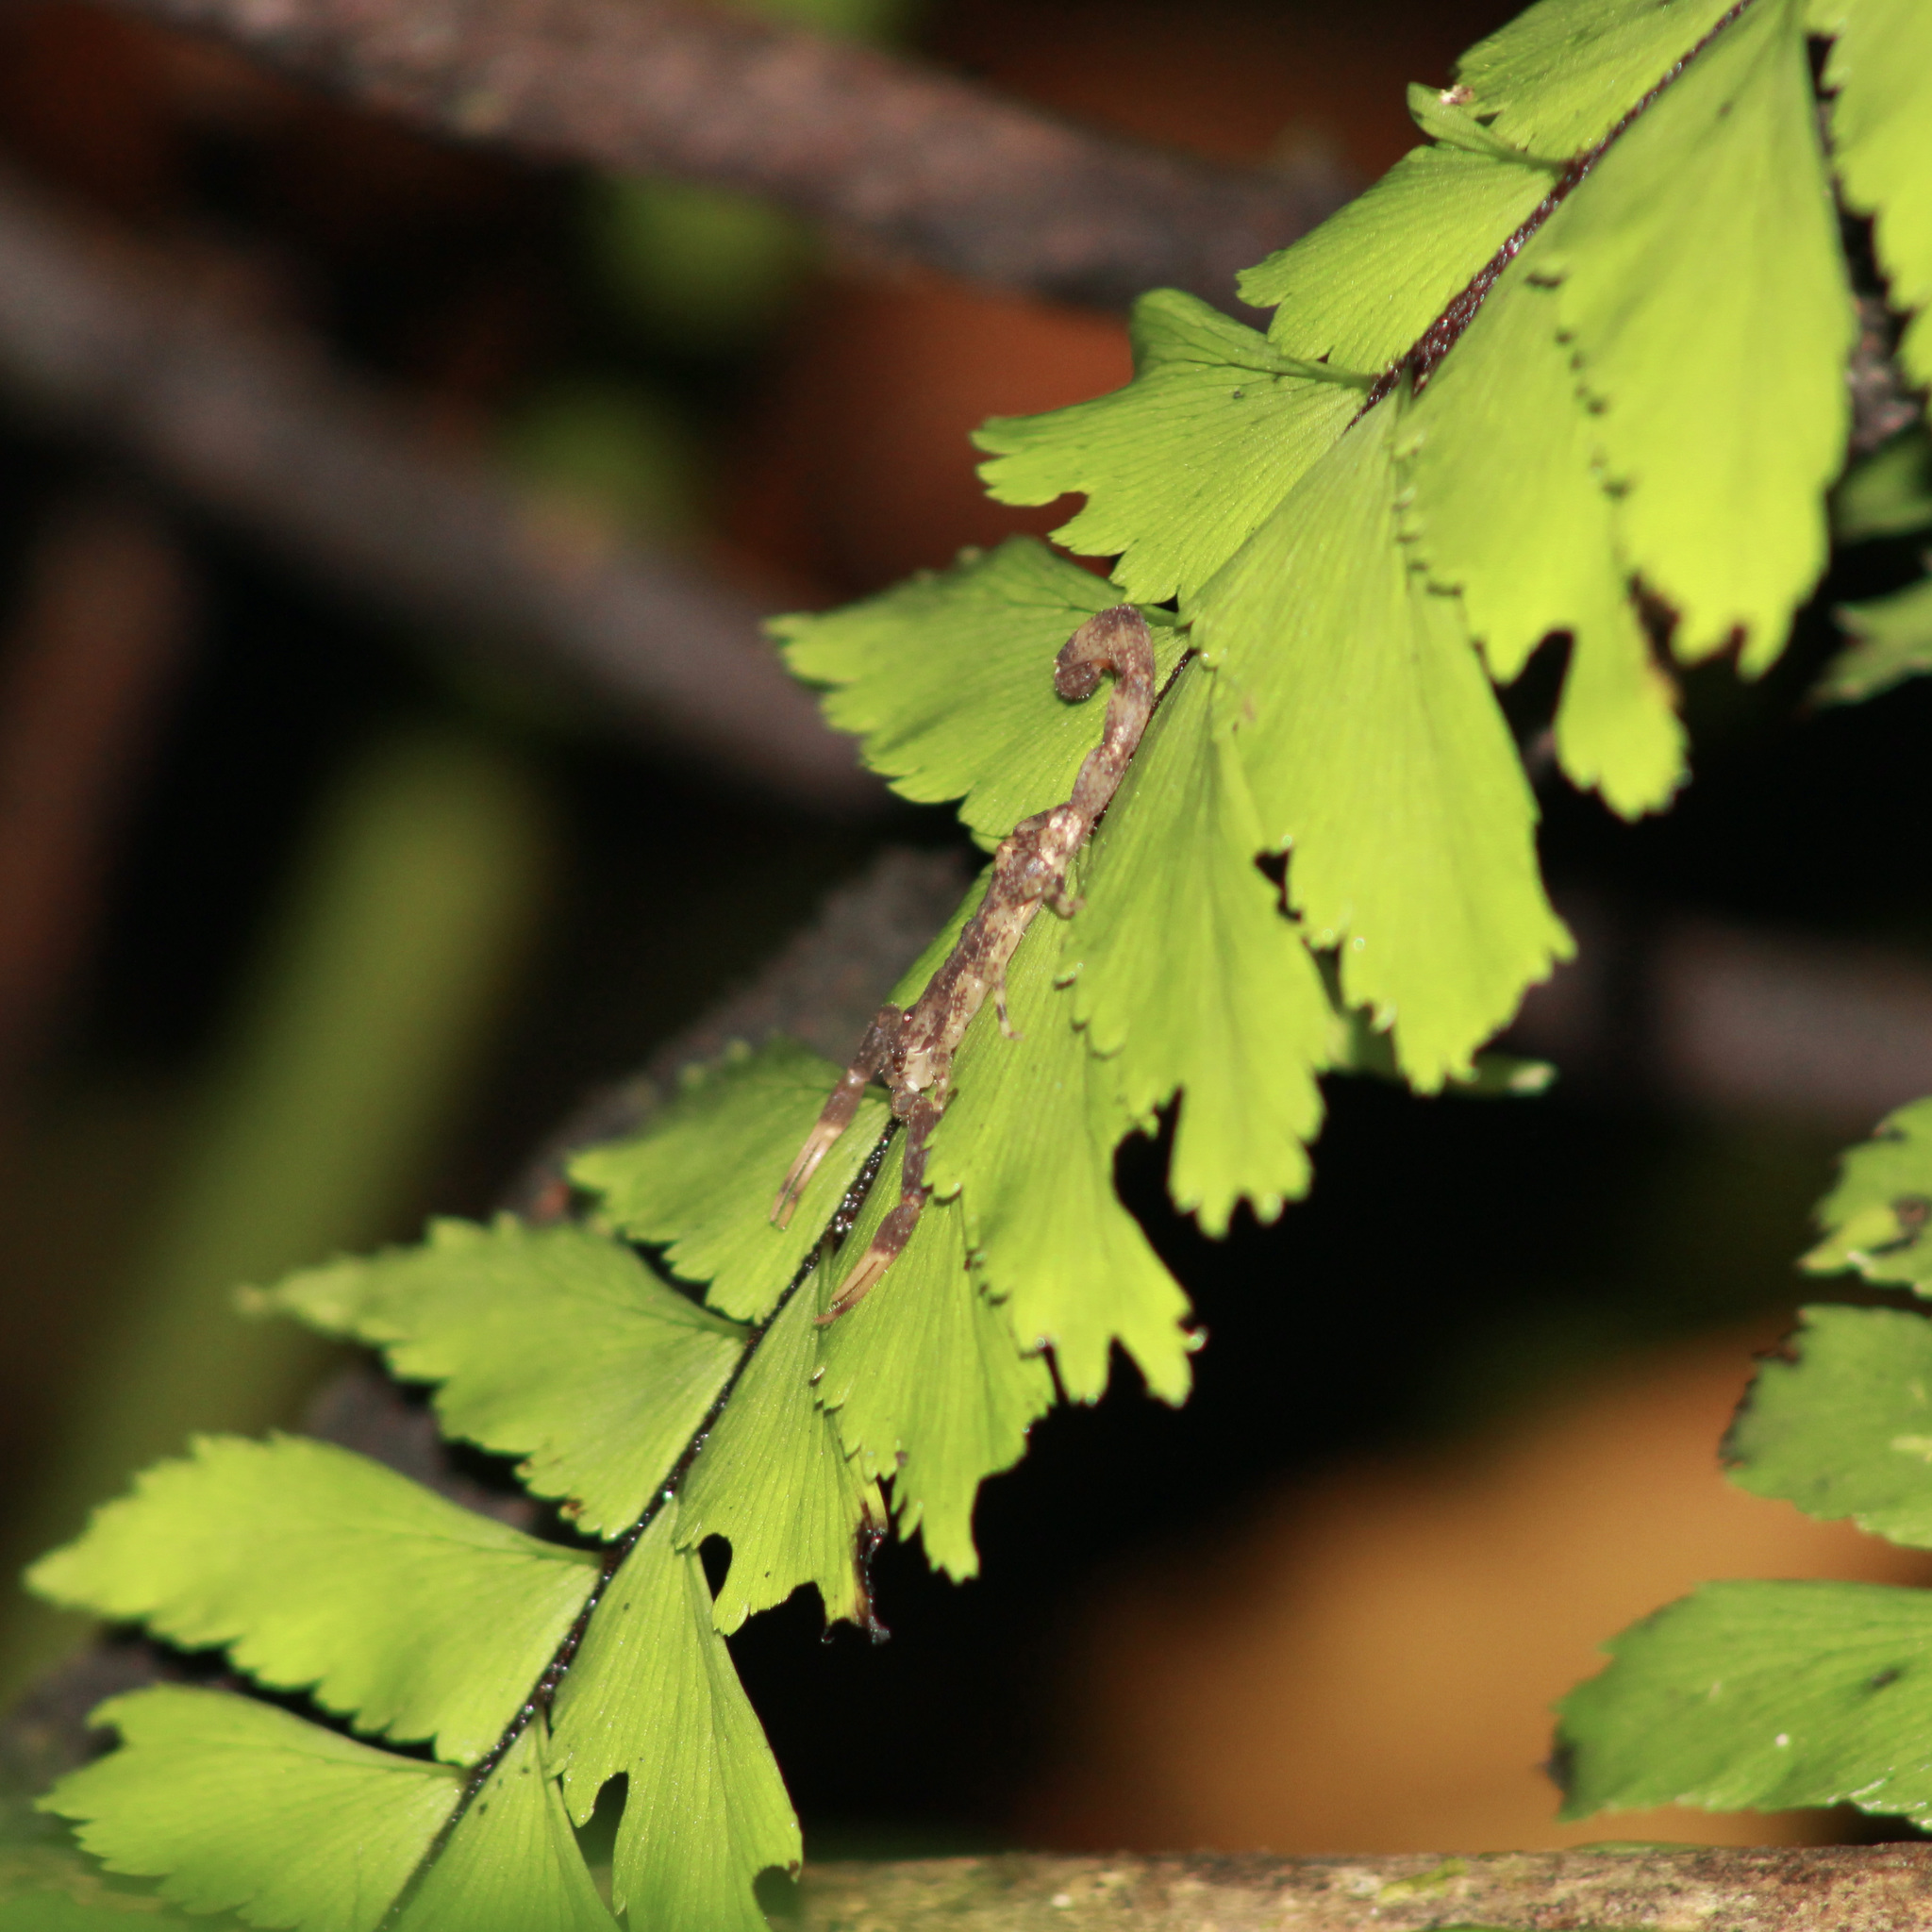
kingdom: Animalia
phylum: Arthropoda
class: Arachnida
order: Scorpiones
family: Buthidae
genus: Tityus
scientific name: Tityus trinitatis
